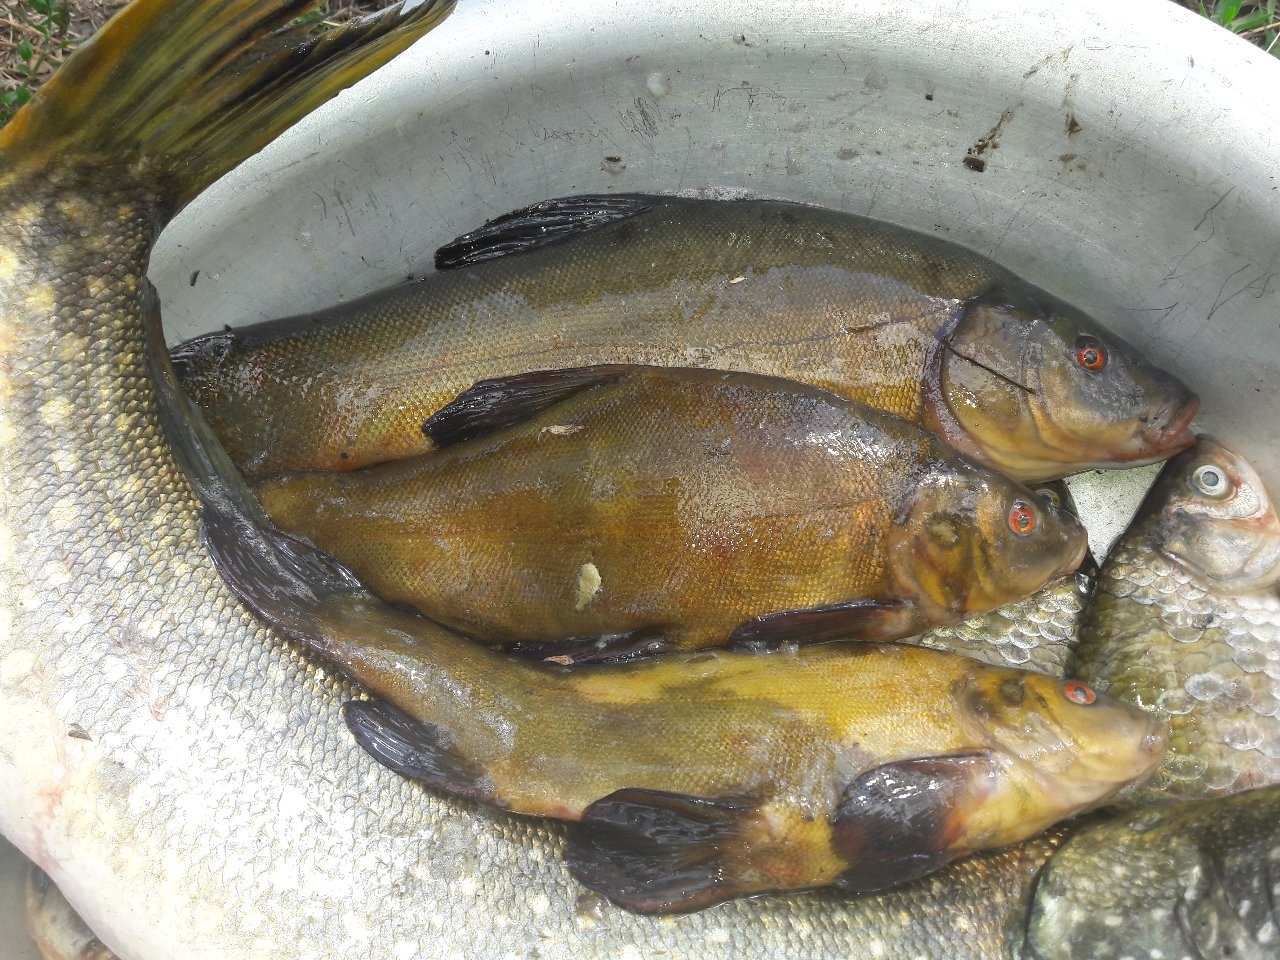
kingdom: Animalia
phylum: Chordata
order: Cypriniformes
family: Cyprinidae
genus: Tinca
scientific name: Tinca tinca
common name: Tench
